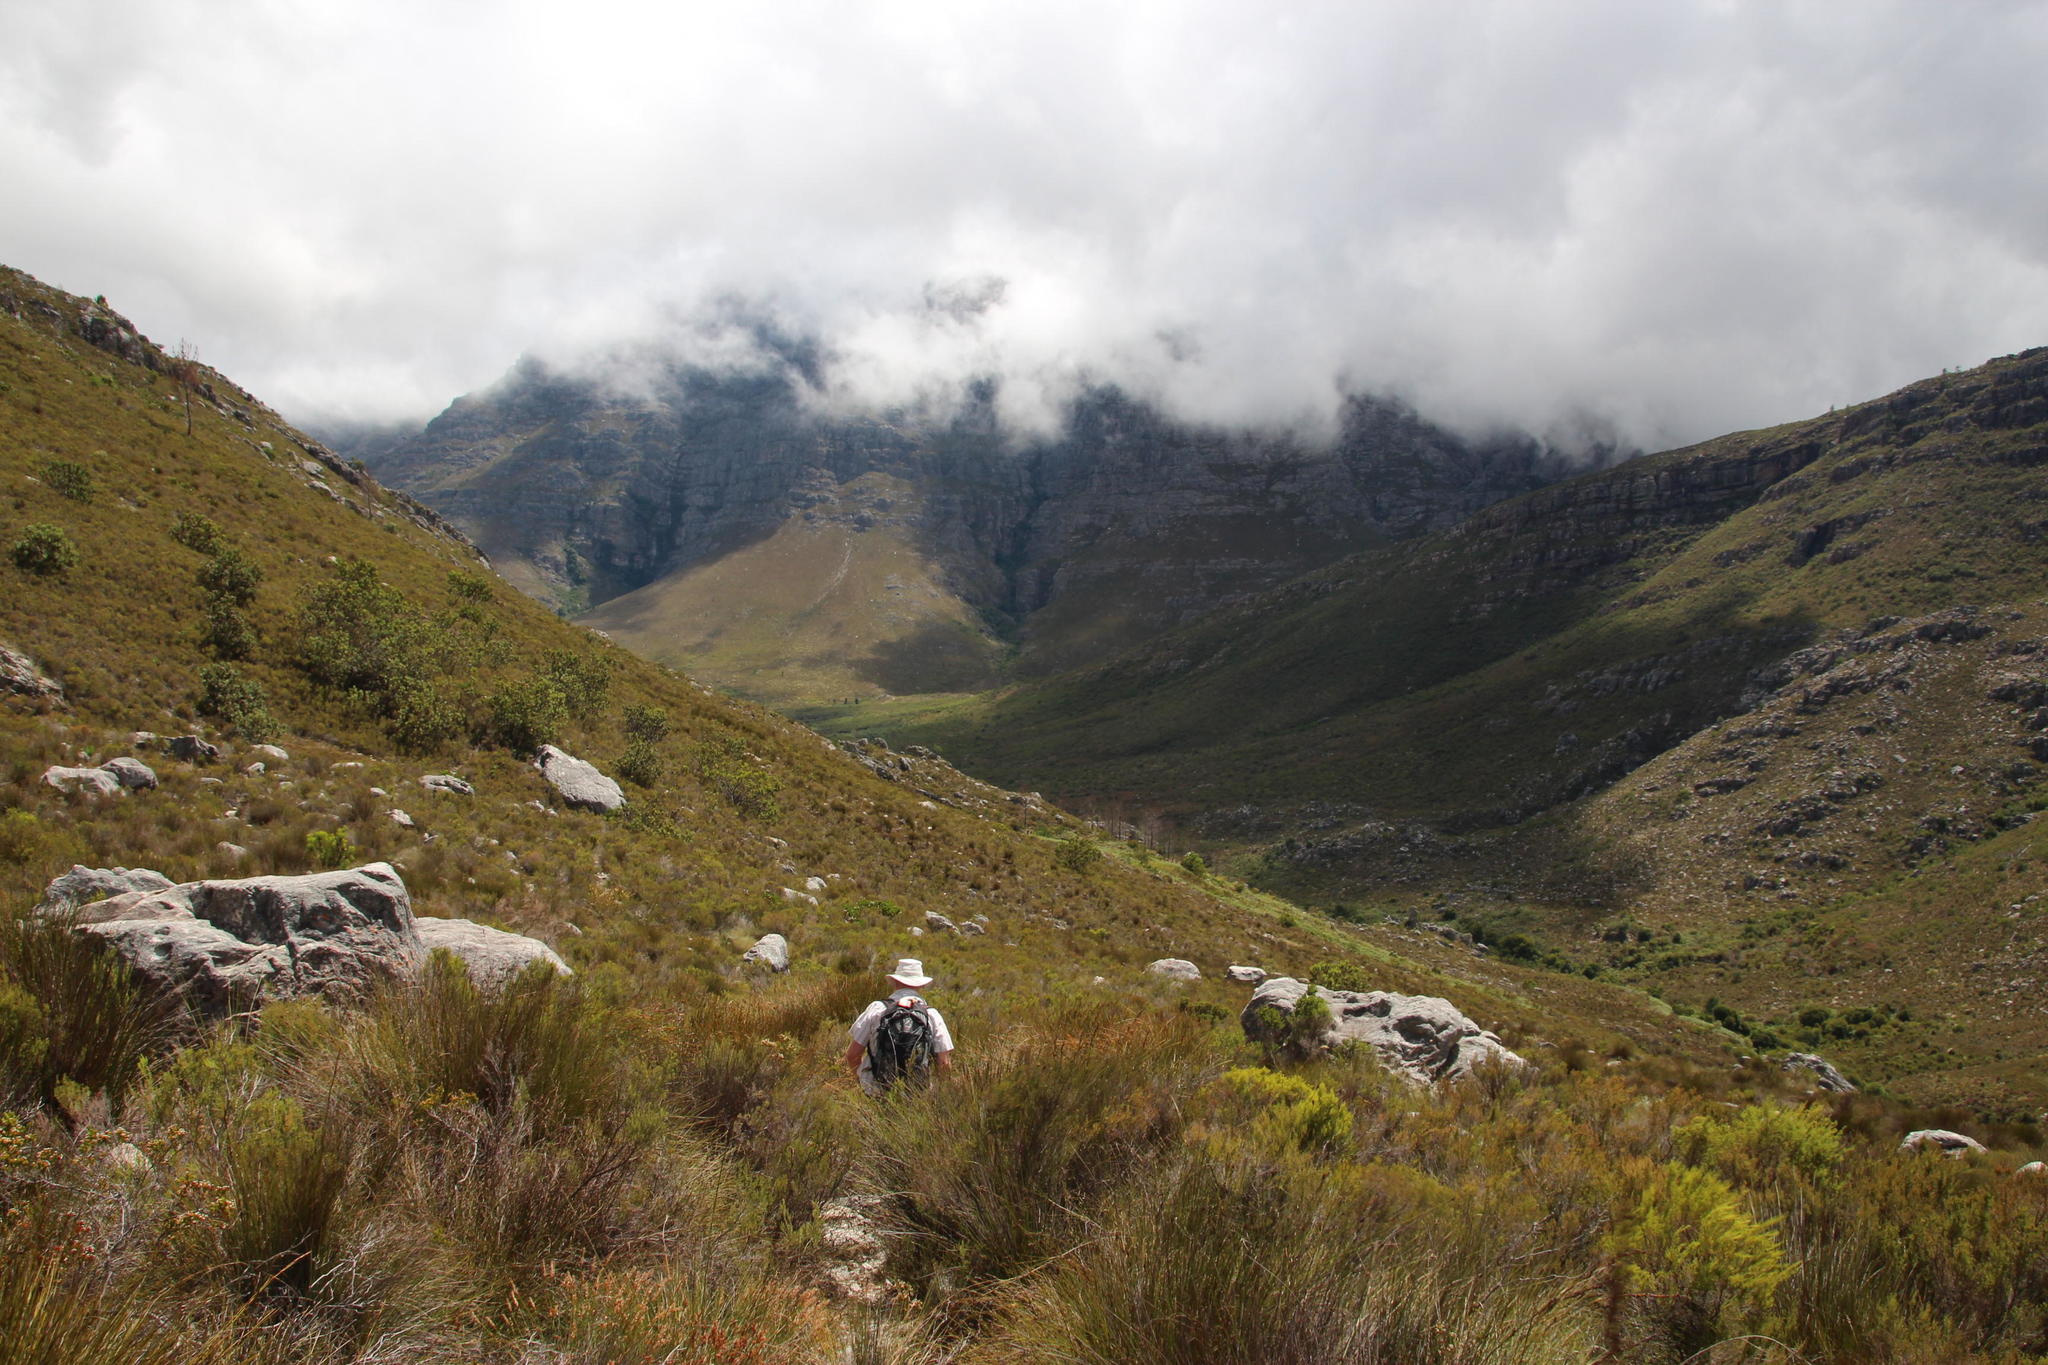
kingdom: Plantae
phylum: Tracheophyta
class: Magnoliopsida
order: Proteales
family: Proteaceae
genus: Protea
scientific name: Protea laurifolia
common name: Grey-leaf sugarbsh
